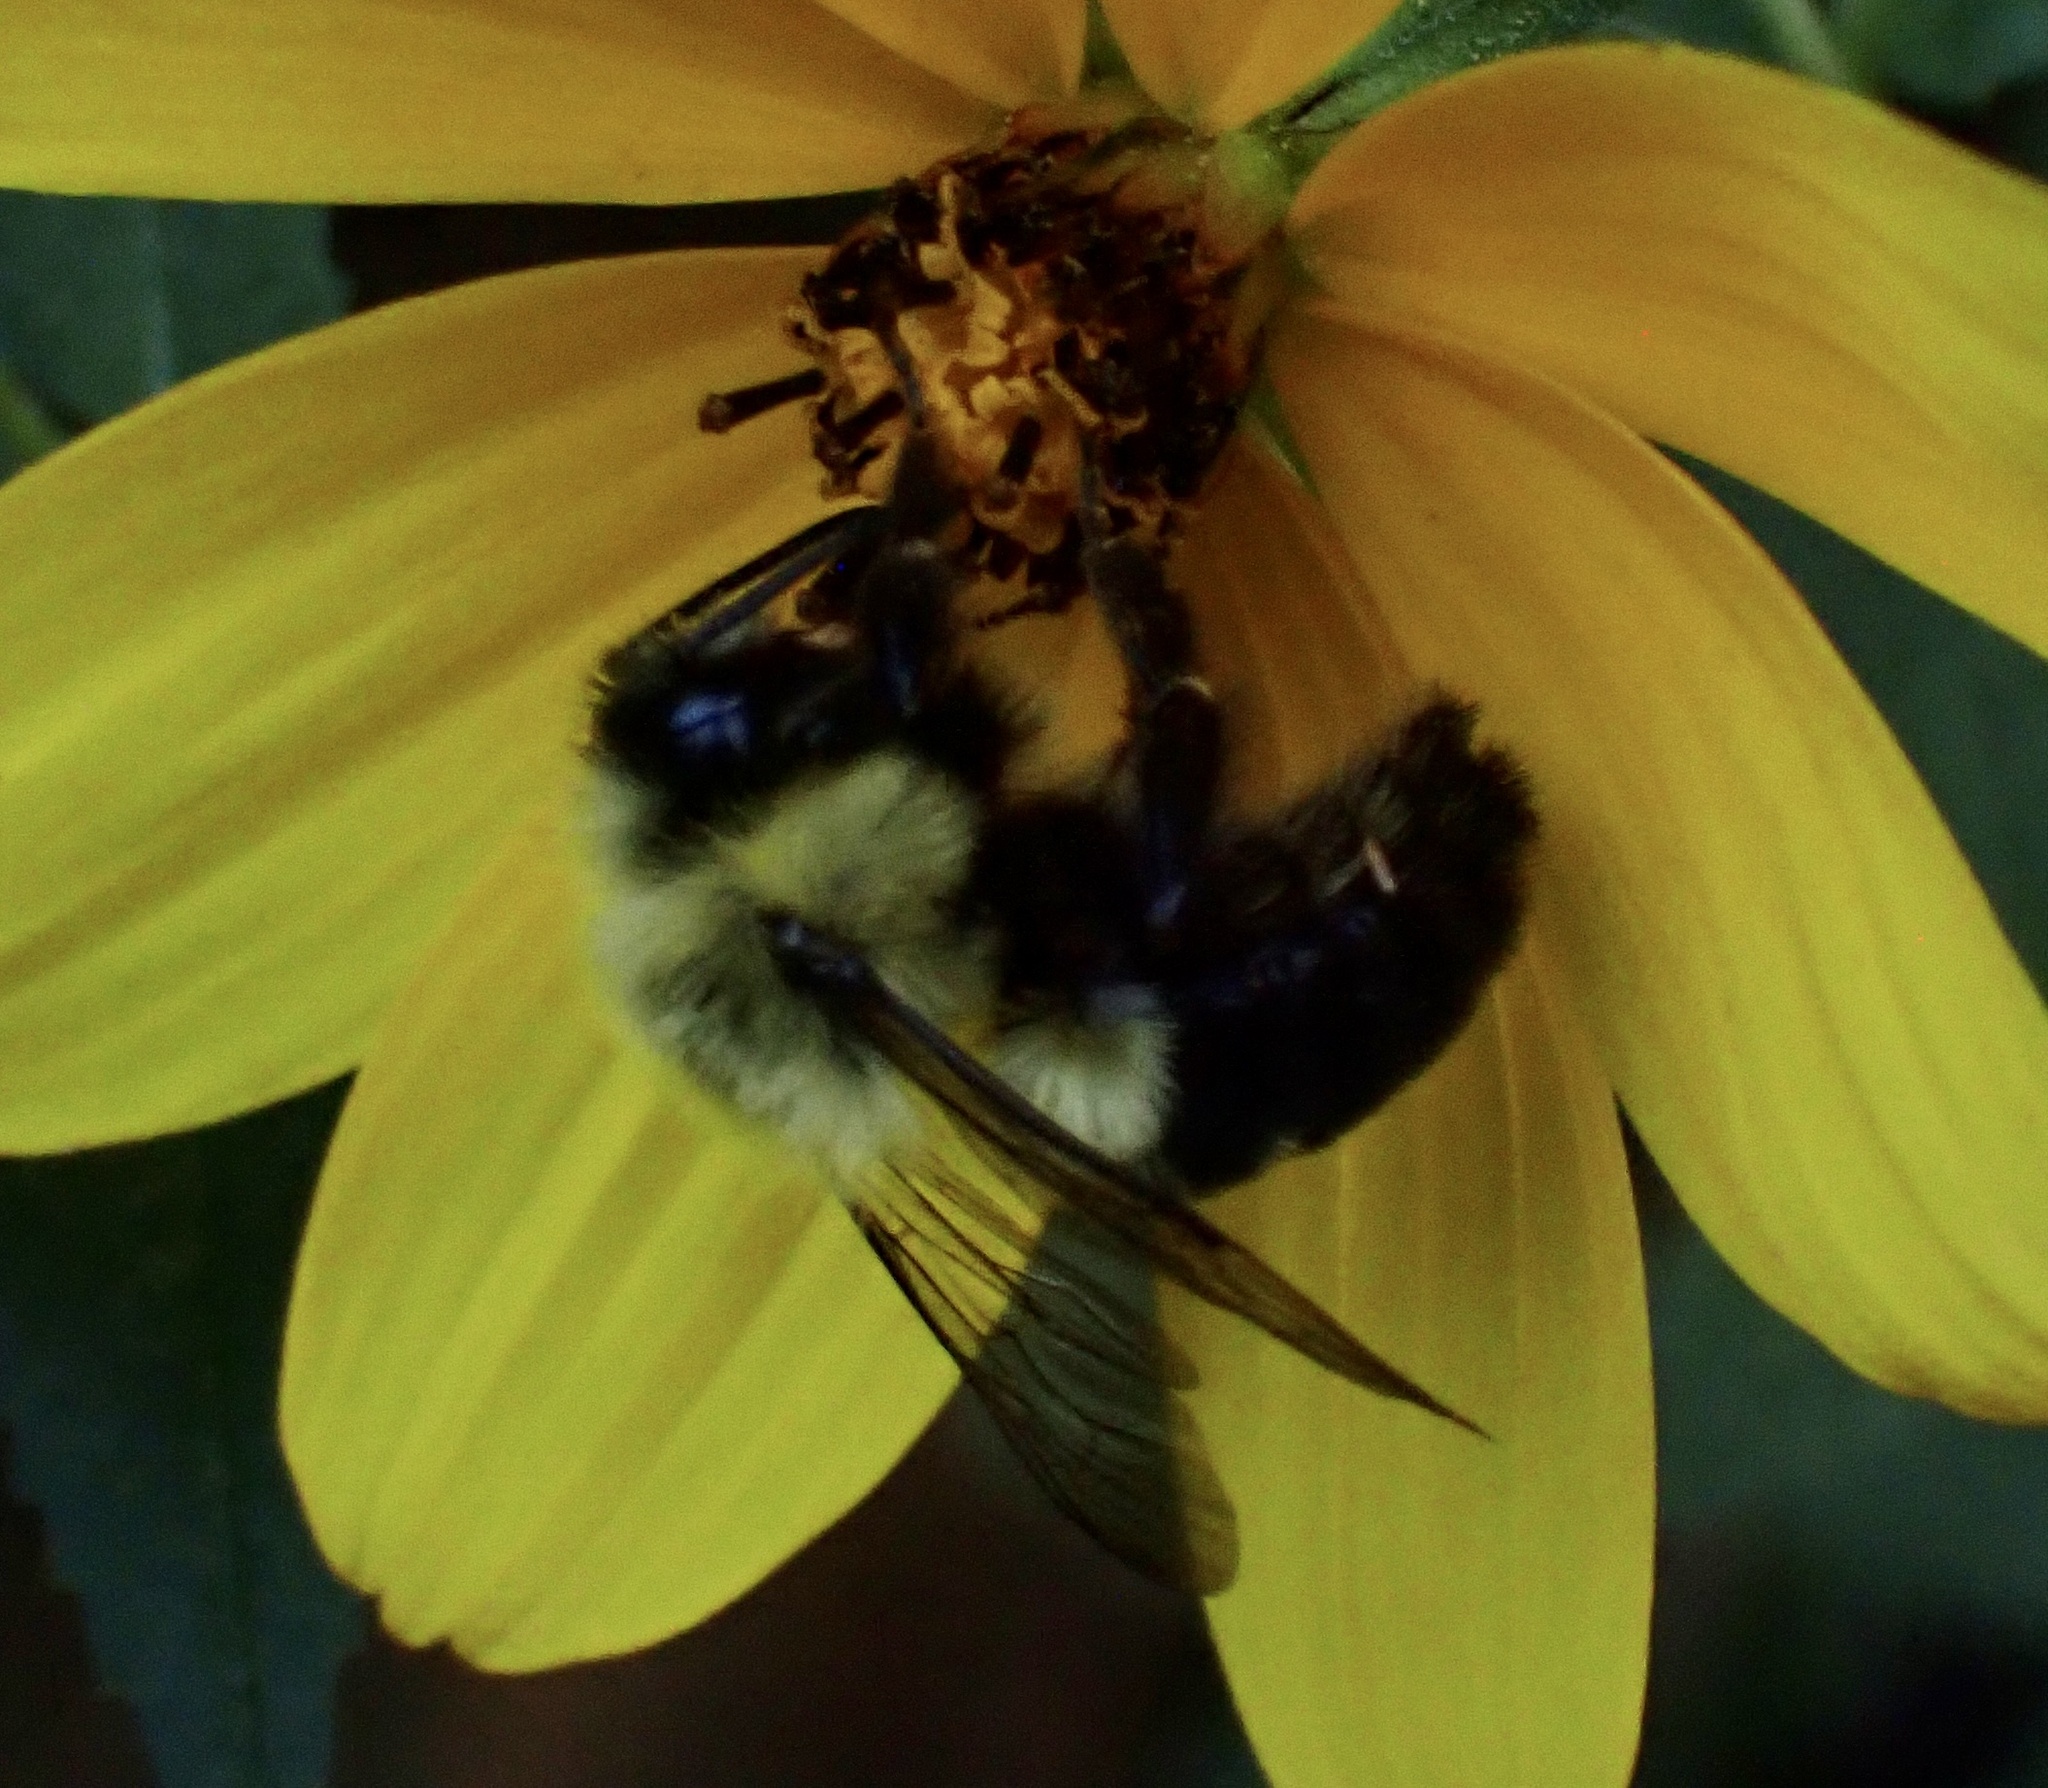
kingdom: Animalia
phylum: Arthropoda
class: Insecta
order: Hymenoptera
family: Apidae
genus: Bombus
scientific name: Bombus impatiens
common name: Common eastern bumble bee
